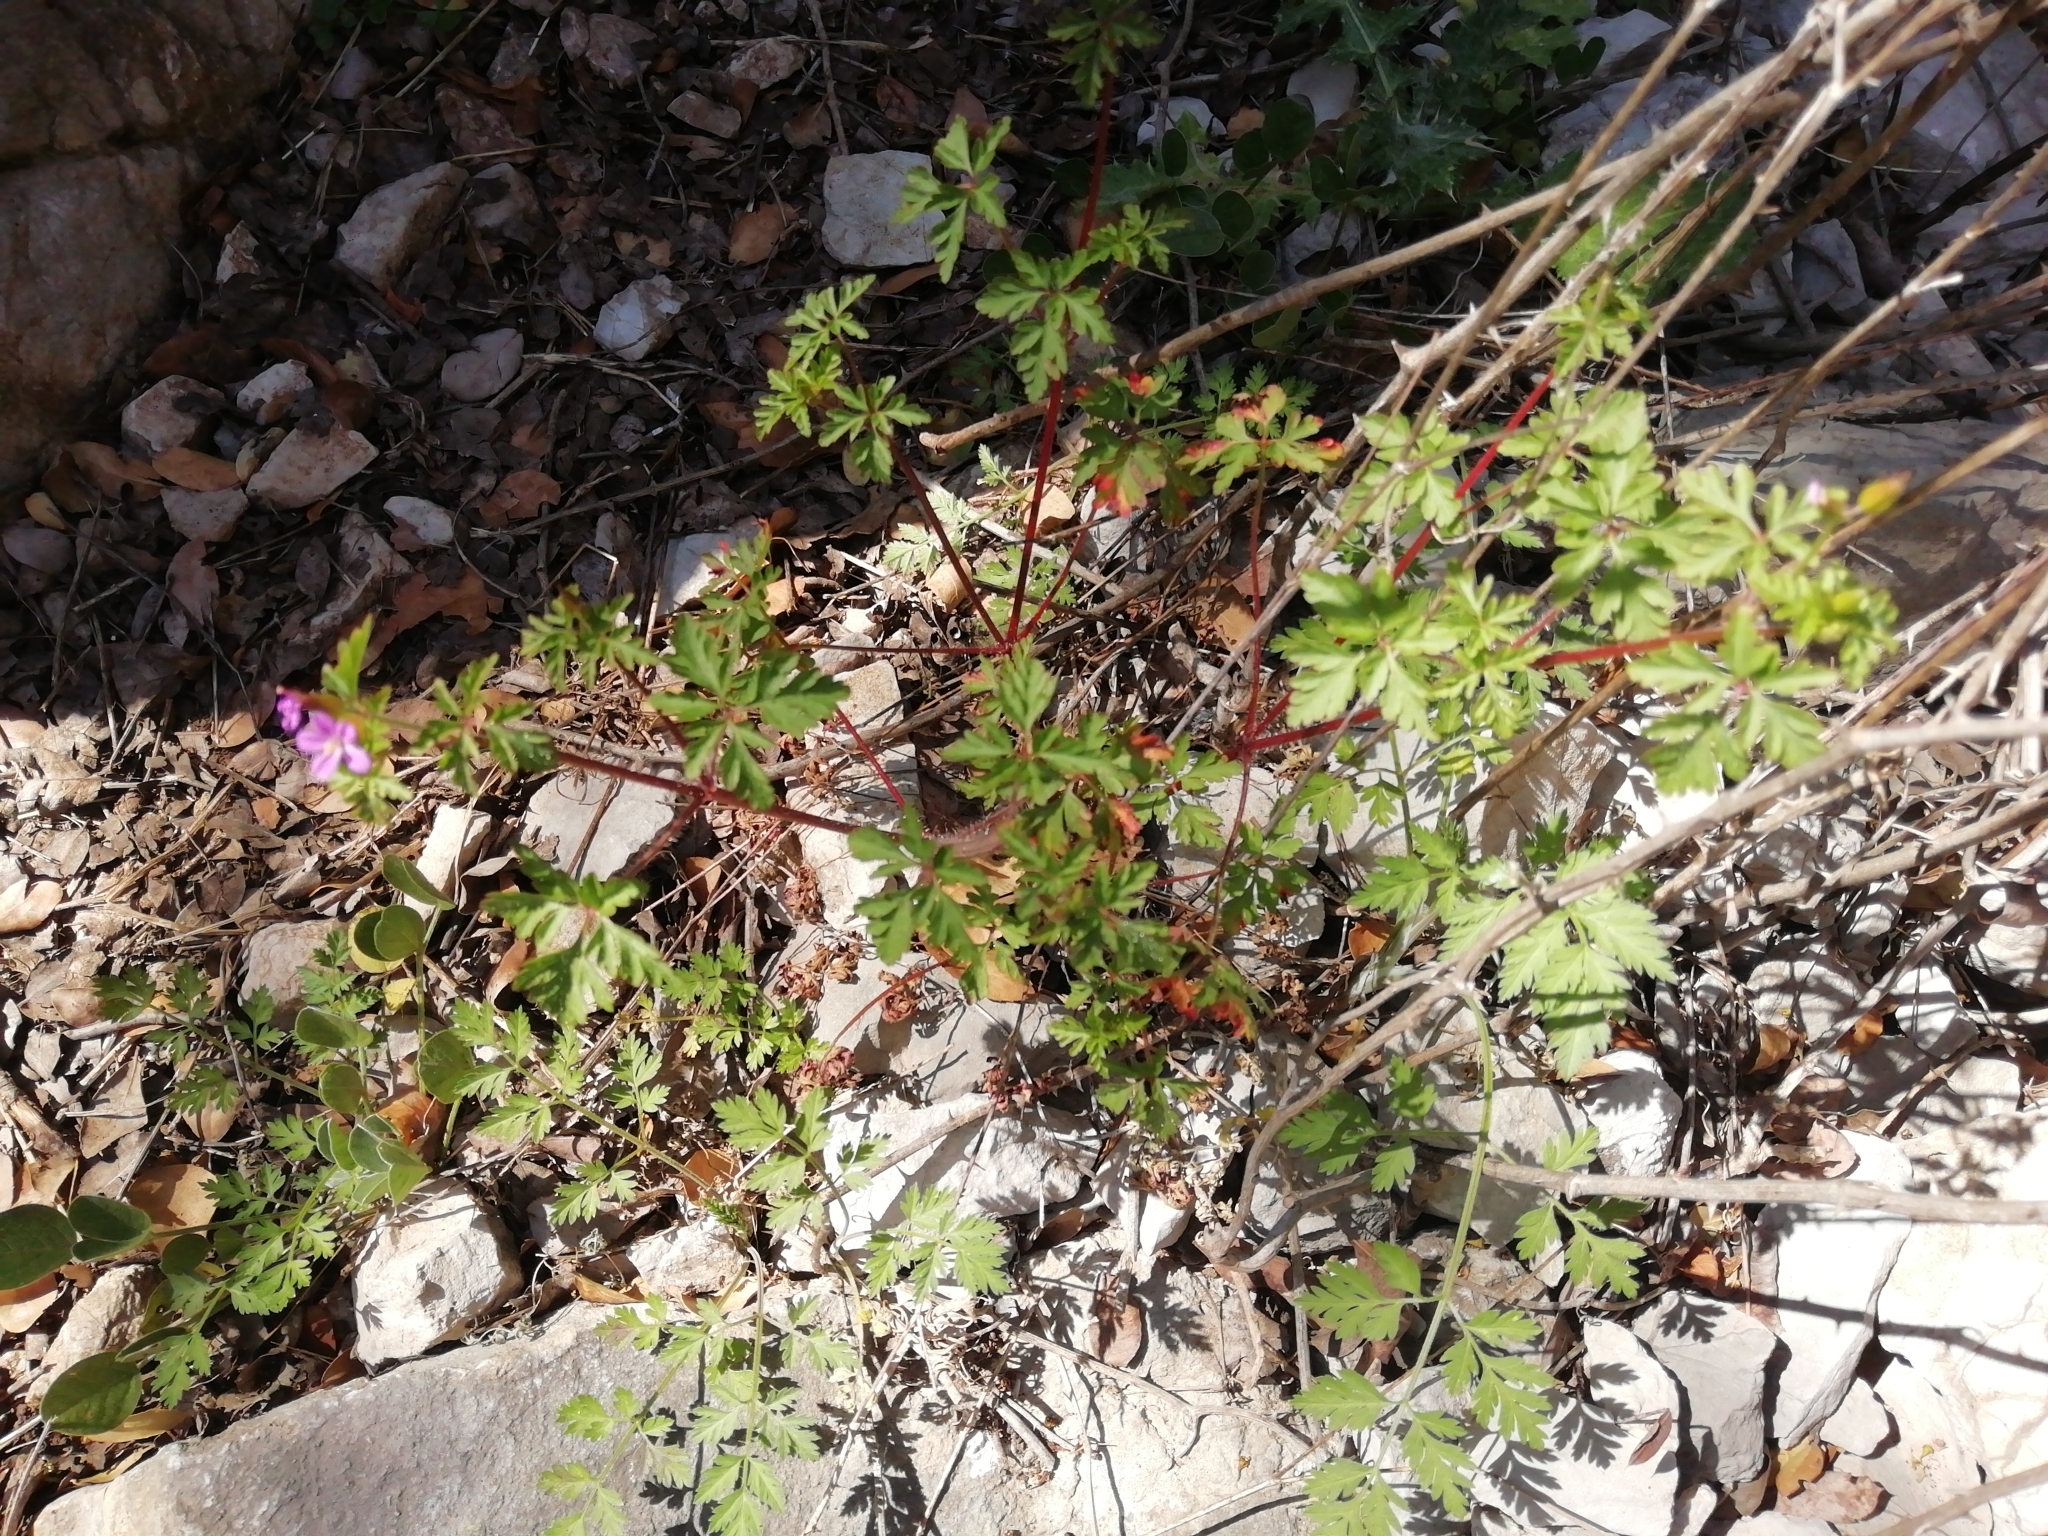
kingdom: Plantae
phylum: Tracheophyta
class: Magnoliopsida
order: Geraniales
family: Geraniaceae
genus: Geranium
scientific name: Geranium purpureum
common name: Little-robin
